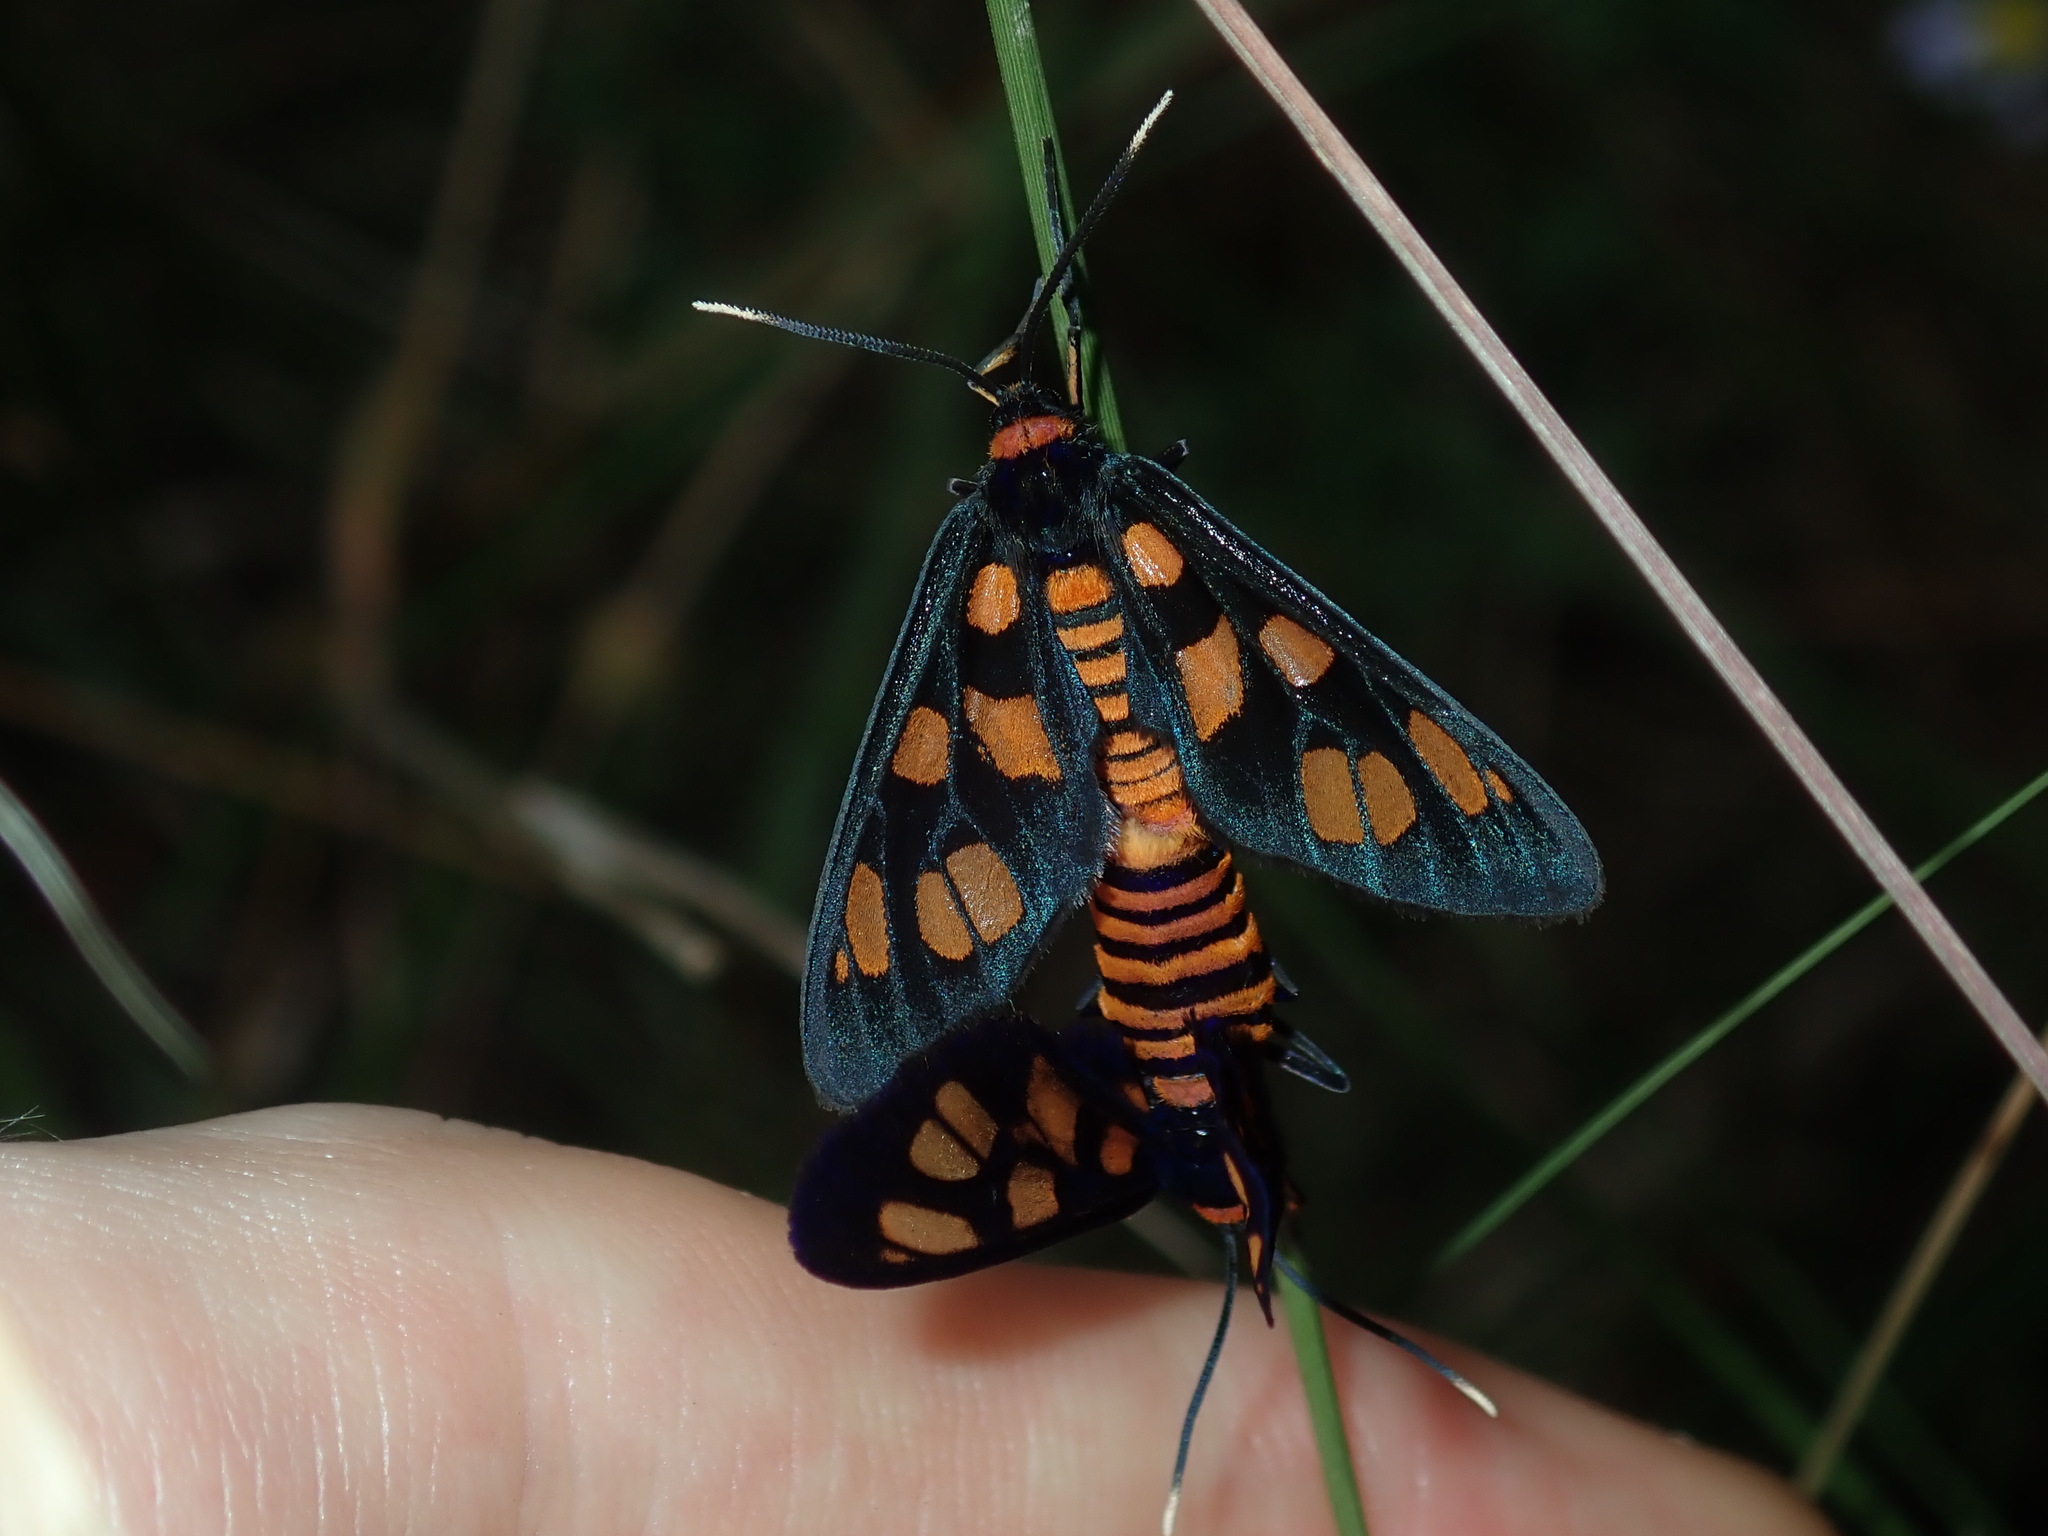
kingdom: Animalia
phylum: Arthropoda
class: Insecta
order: Lepidoptera
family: Erebidae
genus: Amata
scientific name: Amata nigriceps
